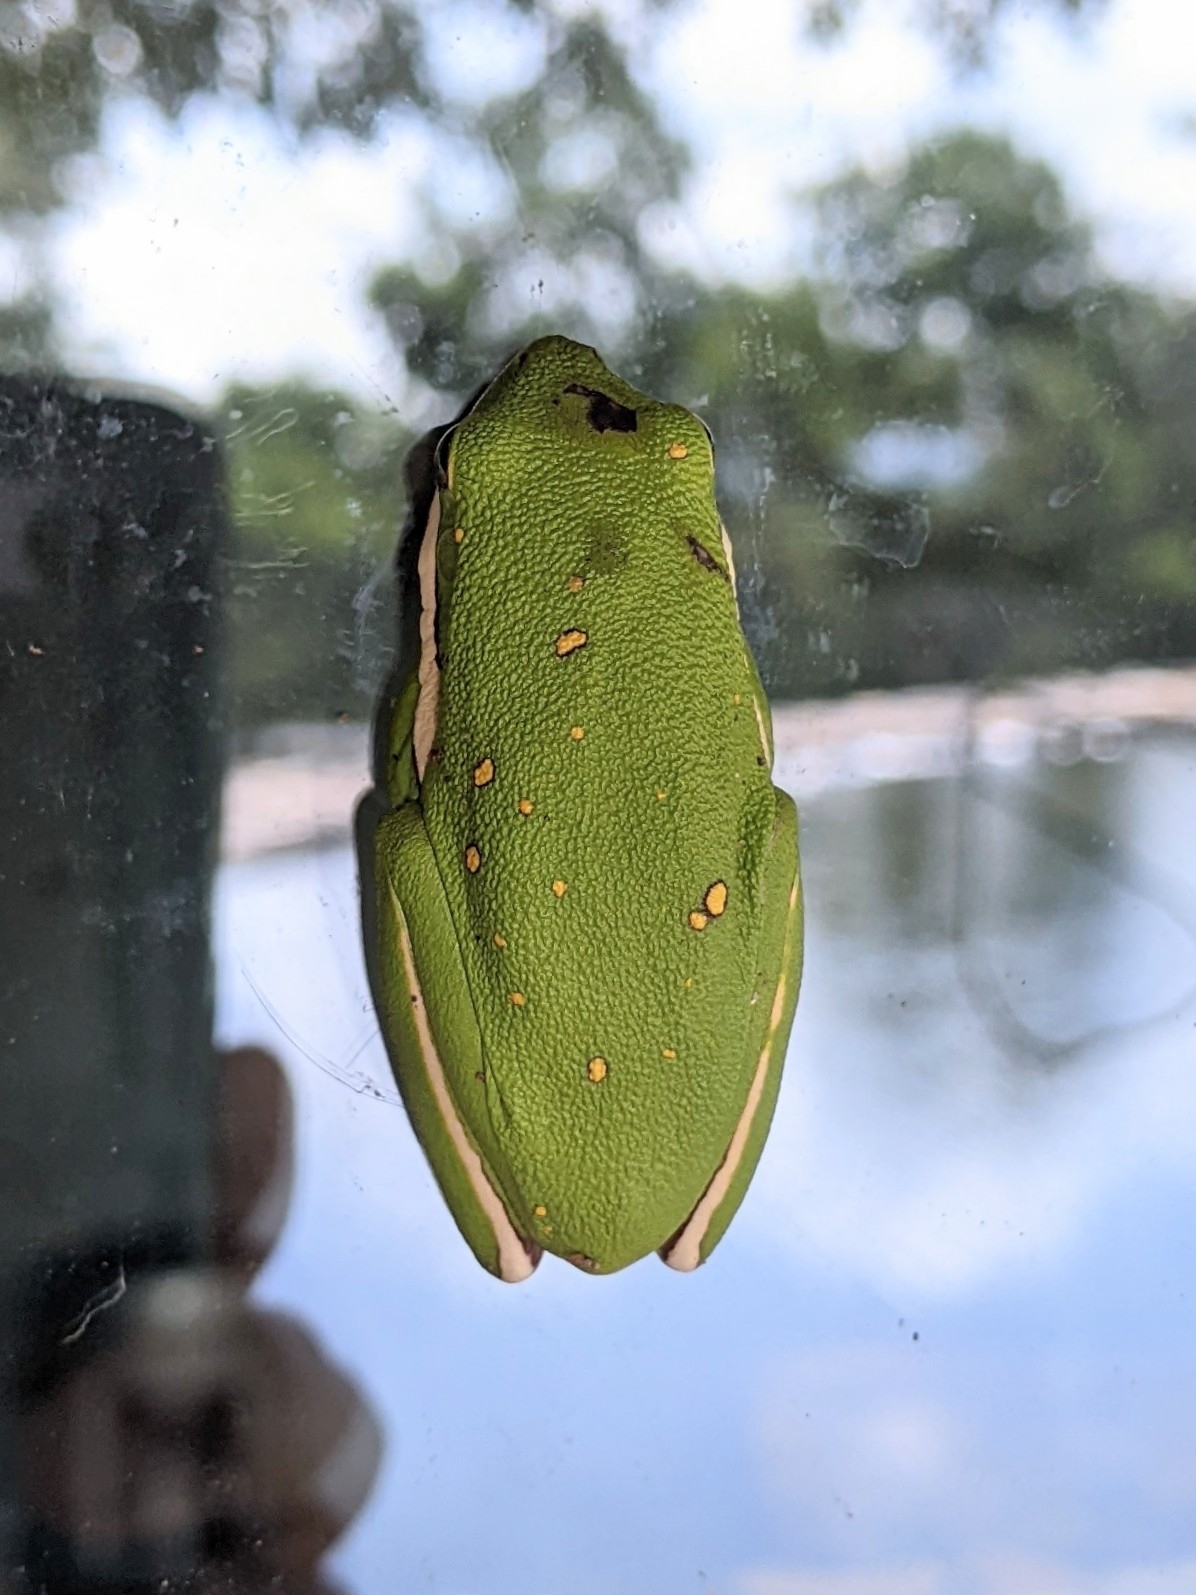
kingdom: Animalia
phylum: Chordata
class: Amphibia
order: Anura
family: Hylidae
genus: Dryophytes
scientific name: Dryophytes cinereus
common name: Green treefrog
